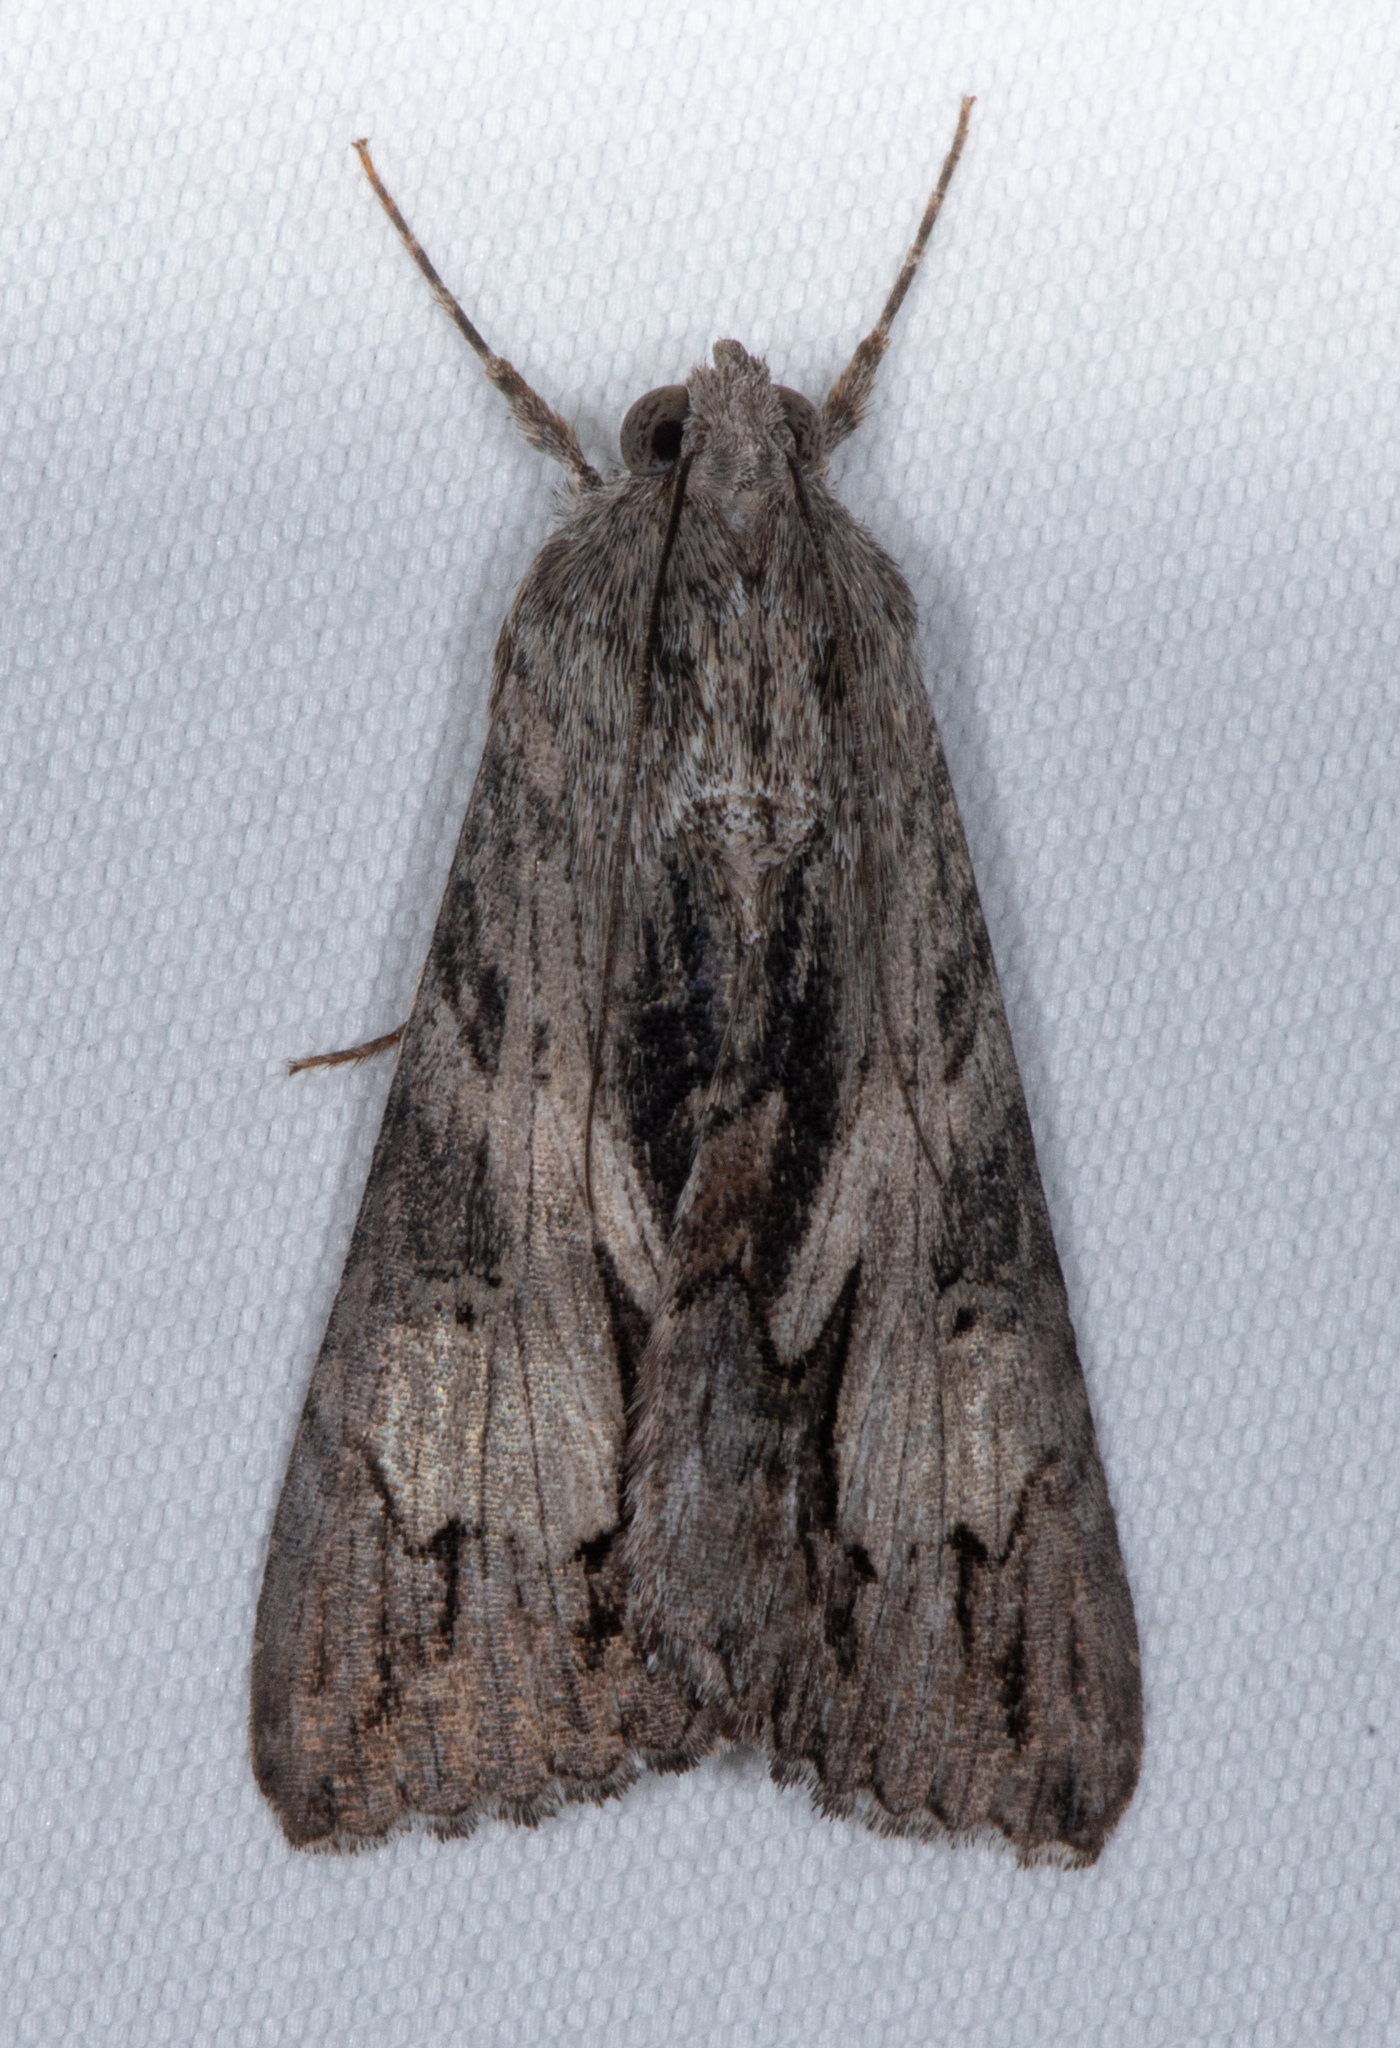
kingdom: Animalia
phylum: Arthropoda
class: Insecta
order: Lepidoptera
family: Erebidae
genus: Melipotis
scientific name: Melipotis jucunda
